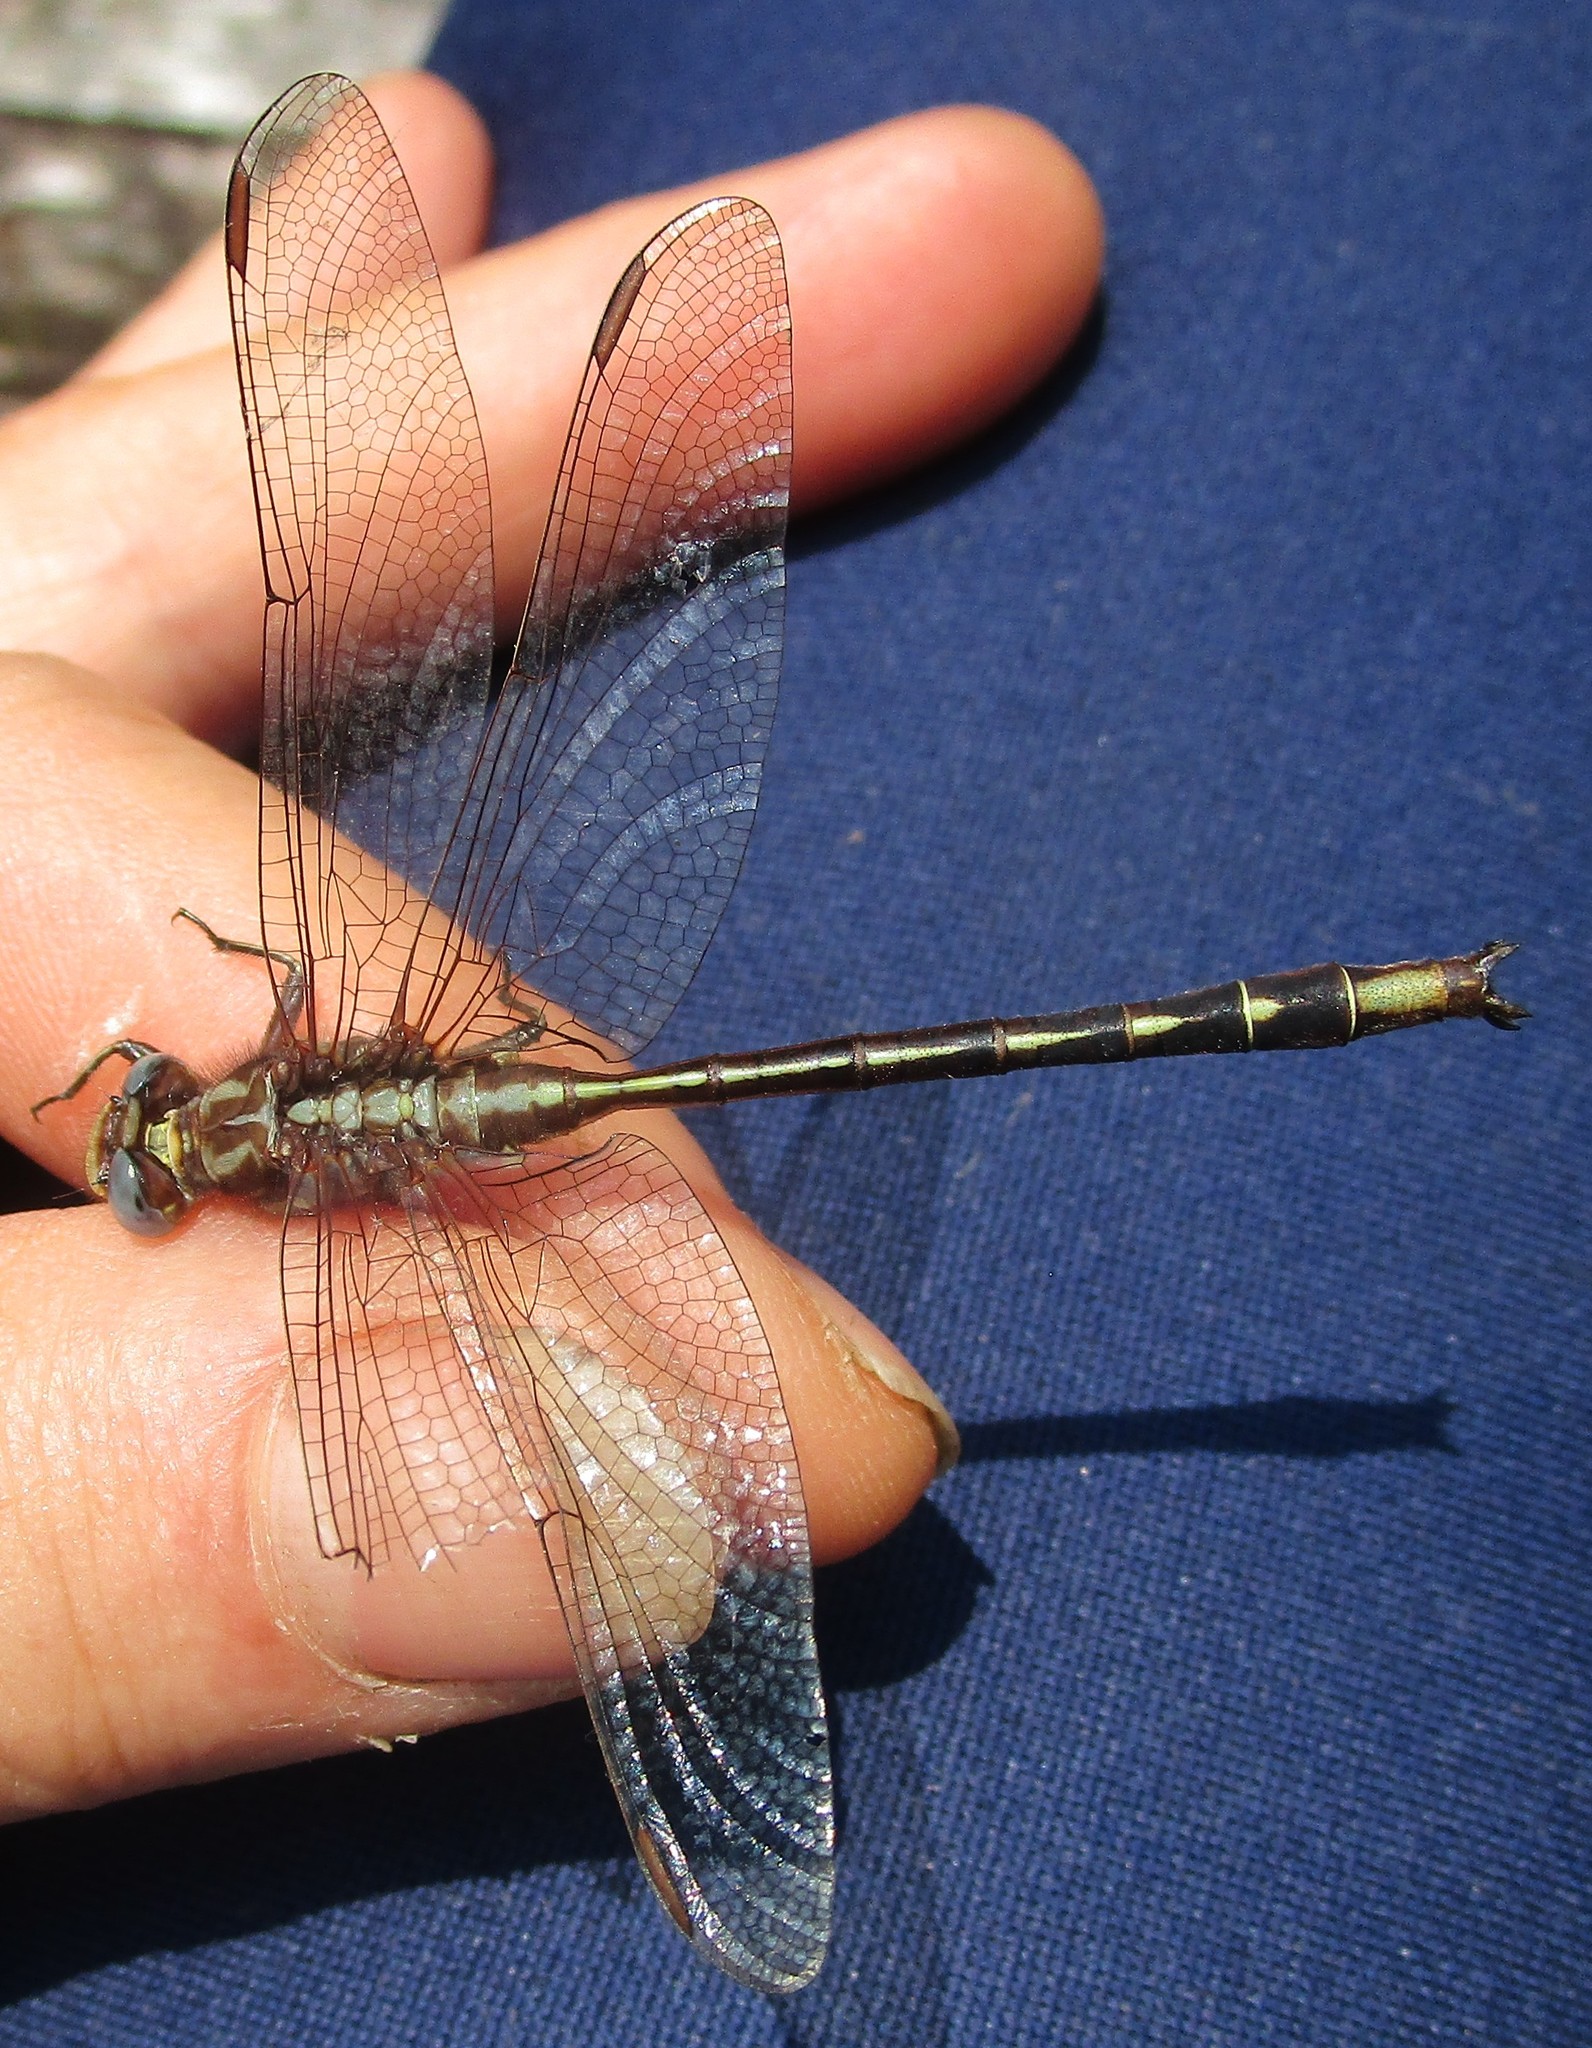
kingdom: Animalia
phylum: Arthropoda
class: Insecta
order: Odonata
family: Gomphidae
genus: Phanogomphus
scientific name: Phanogomphus lividus
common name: Ashy clubtail
